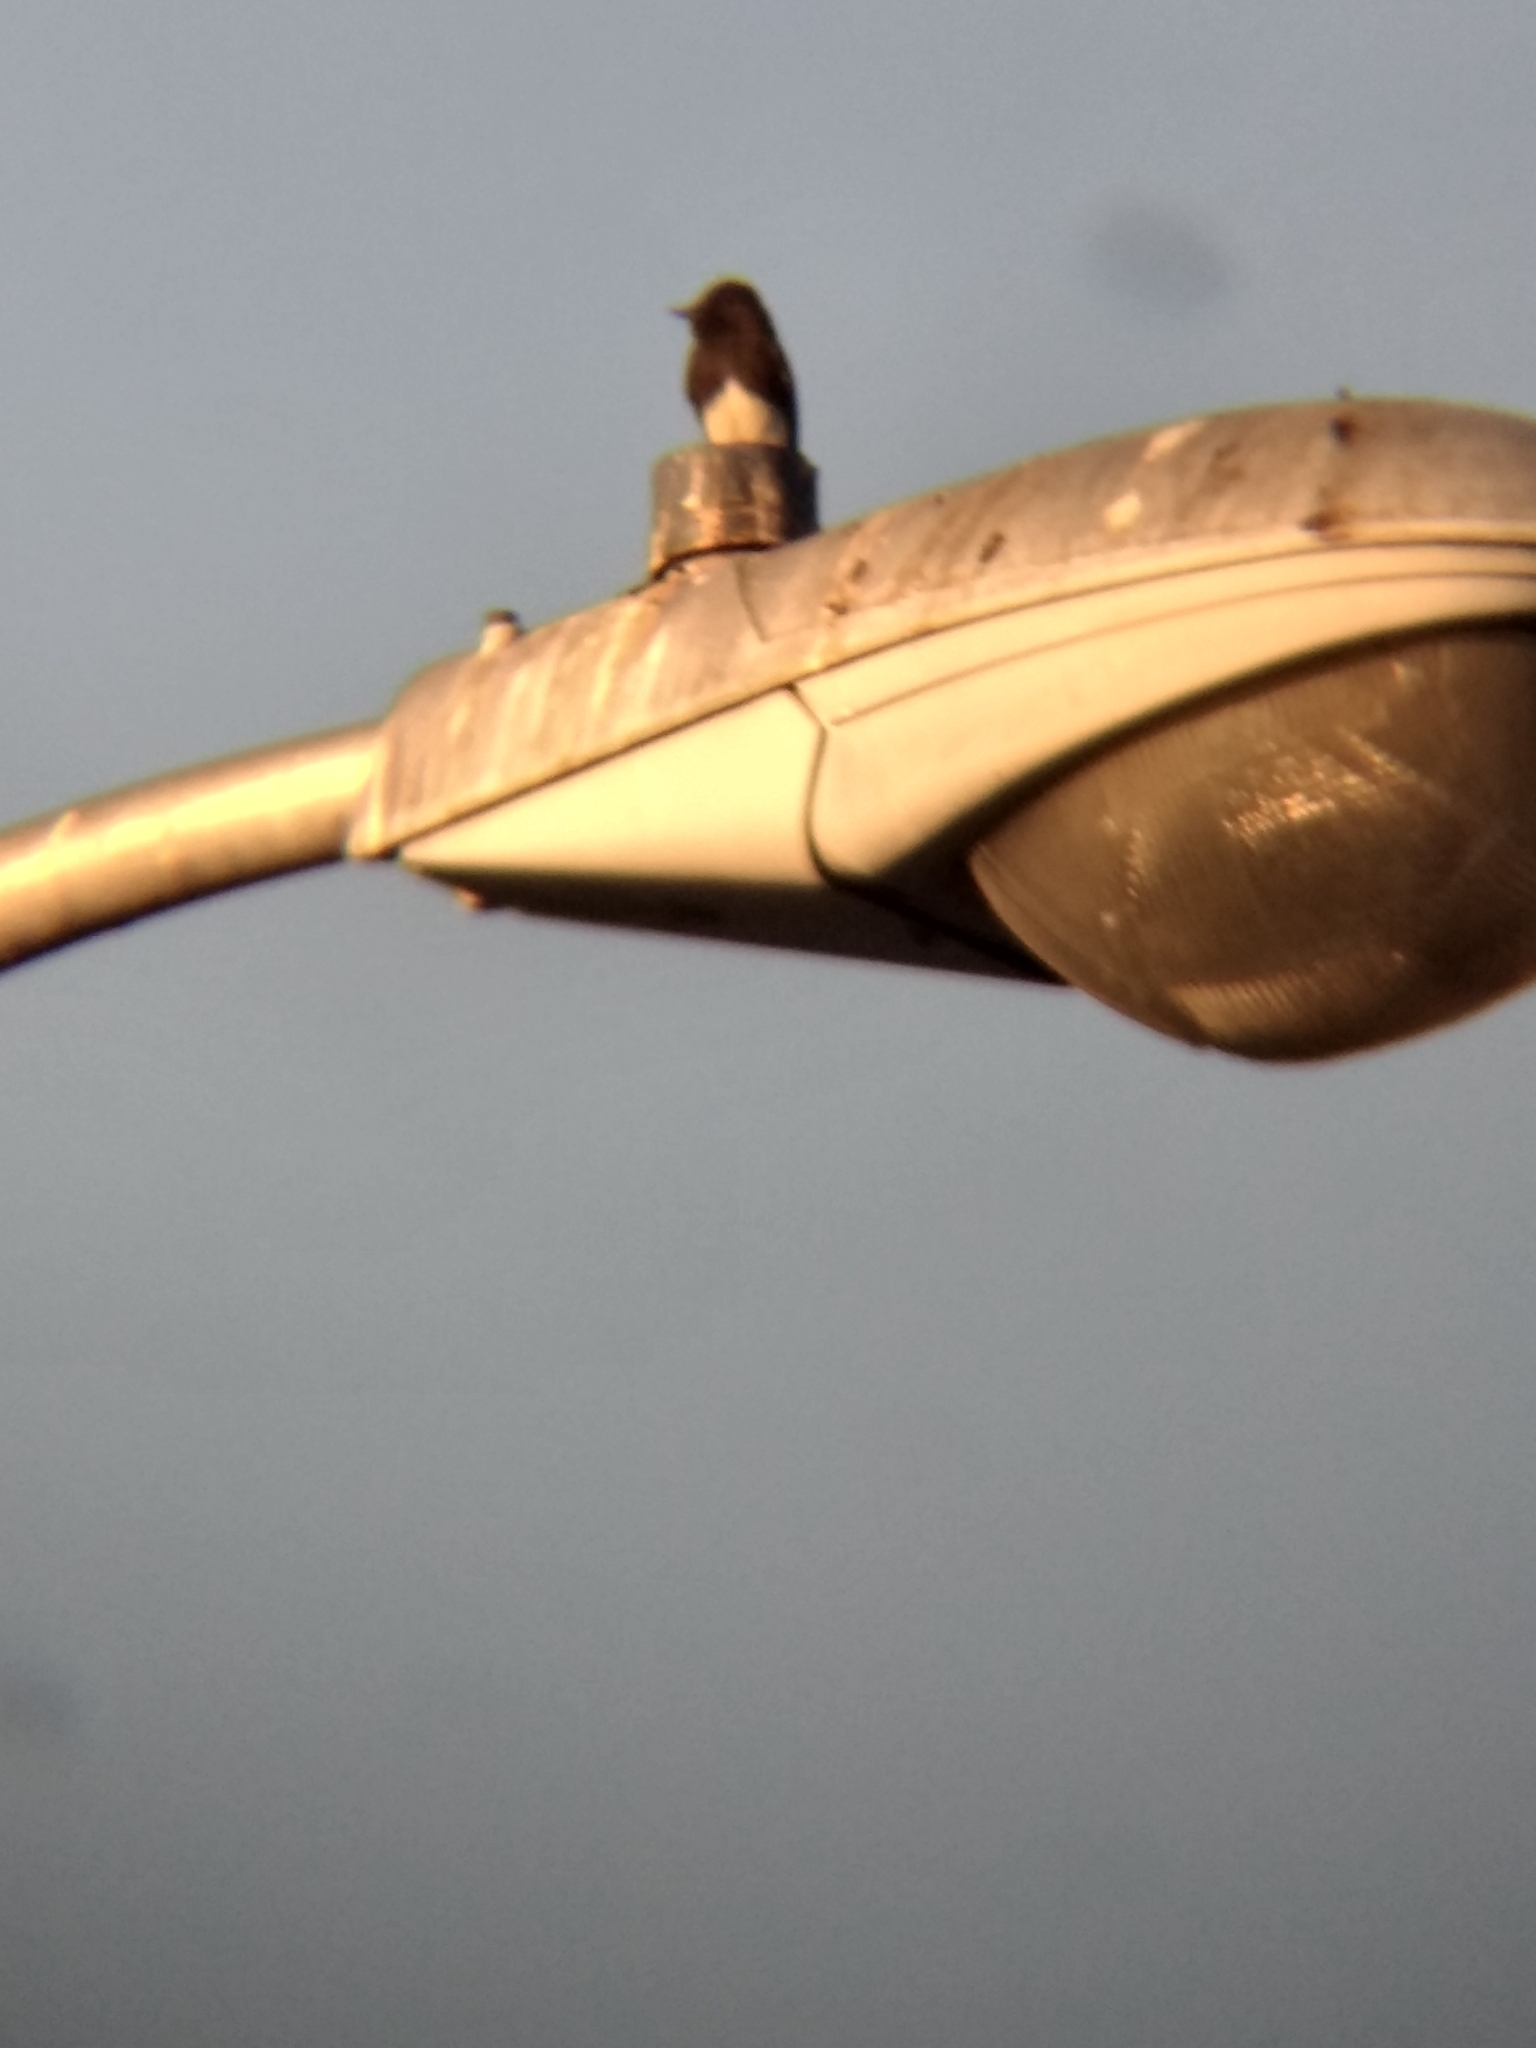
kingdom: Animalia
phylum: Chordata
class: Aves
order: Passeriformes
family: Tyrannidae
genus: Sayornis
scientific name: Sayornis nigricans
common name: Black phoebe
